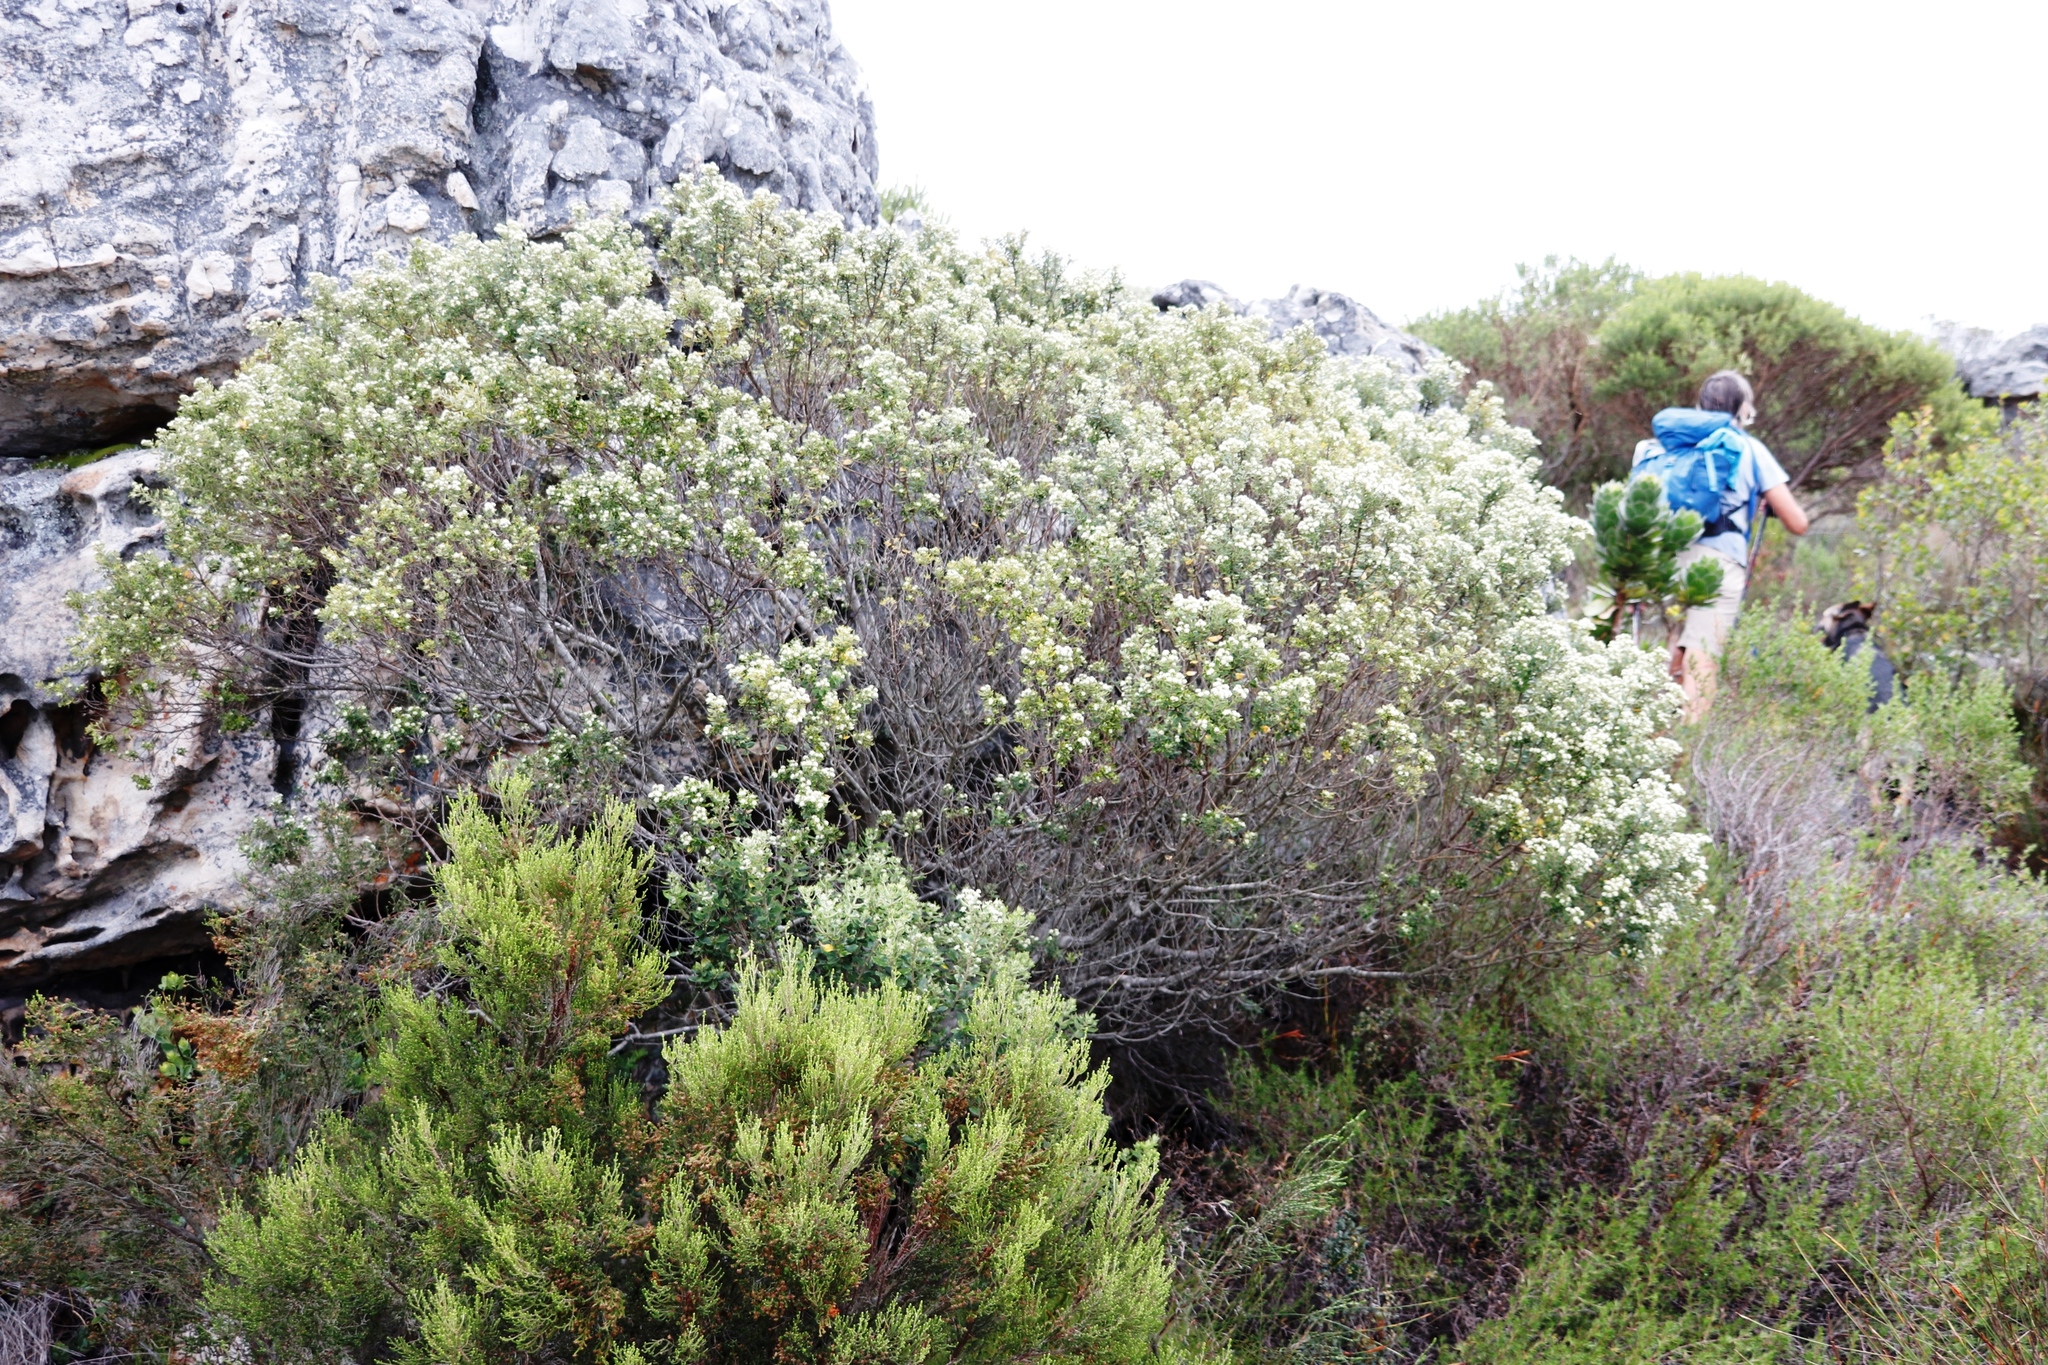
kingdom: Plantae
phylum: Tracheophyta
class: Magnoliopsida
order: Rosales
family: Rhamnaceae
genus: Phylica
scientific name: Phylica buxifolia
